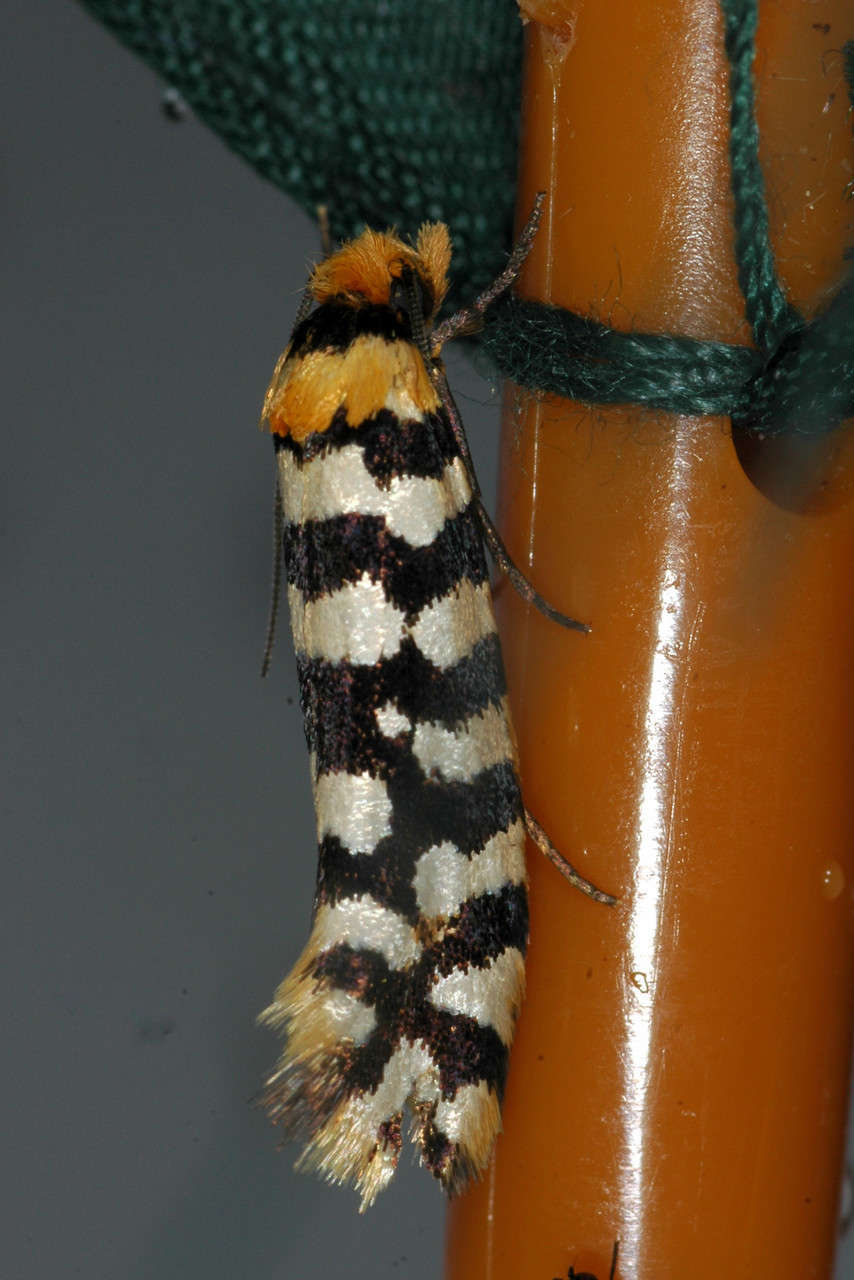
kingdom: Animalia
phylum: Arthropoda
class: Insecta
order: Lepidoptera
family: Tineidae
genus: Moerarchis
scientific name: Moerarchis australasiella
